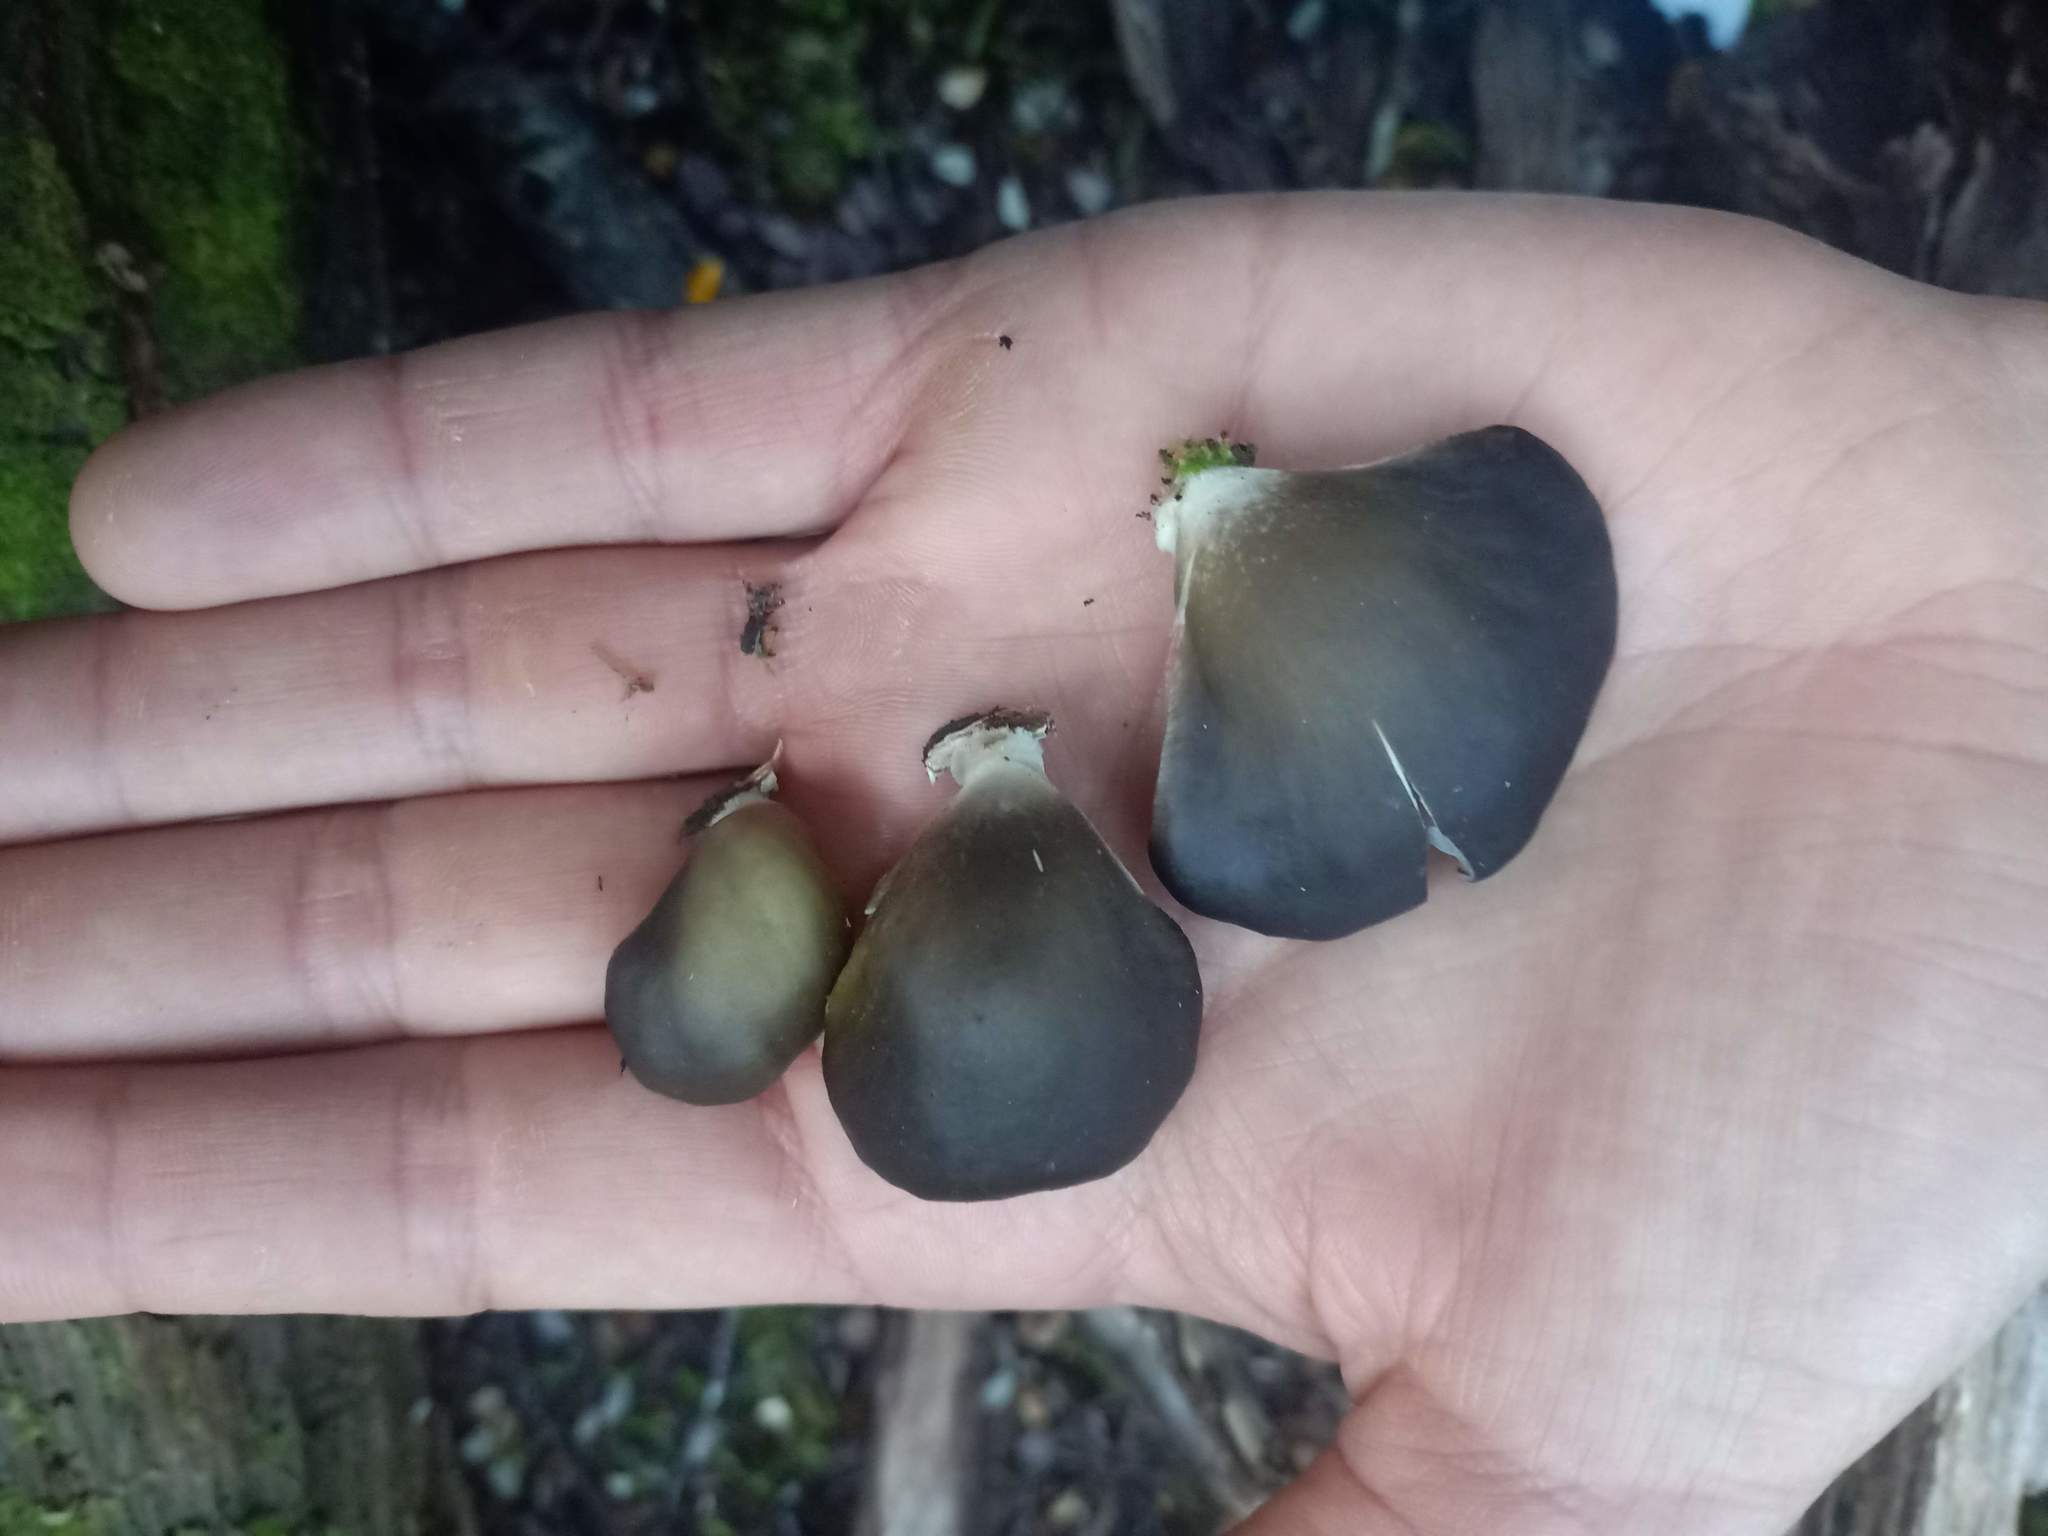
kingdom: Fungi
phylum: Basidiomycota
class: Agaricomycetes
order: Agaricales
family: Pleurotaceae
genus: Pleurotus
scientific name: Pleurotus purpureo-olivaceus
